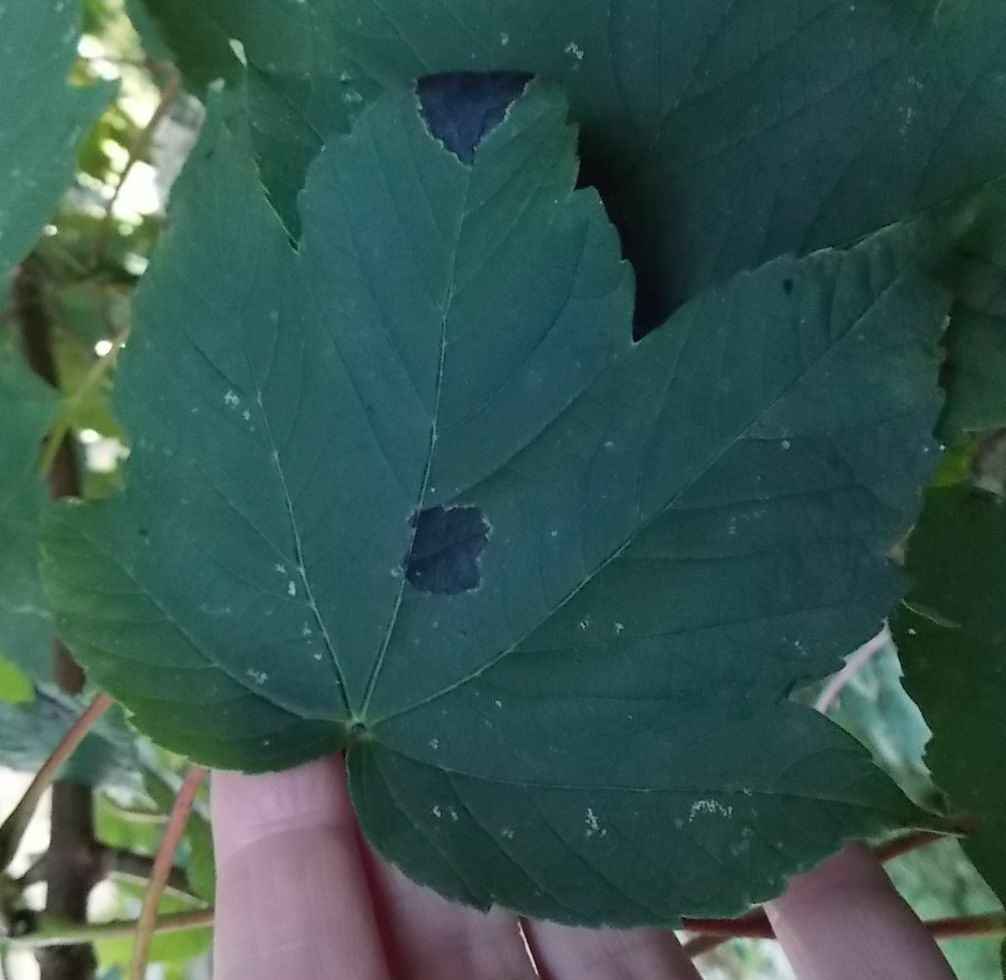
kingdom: Fungi
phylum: Ascomycota
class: Leotiomycetes
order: Rhytismatales
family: Rhytismataceae
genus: Rhytisma
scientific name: Rhytisma acerinum
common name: European tar spot
